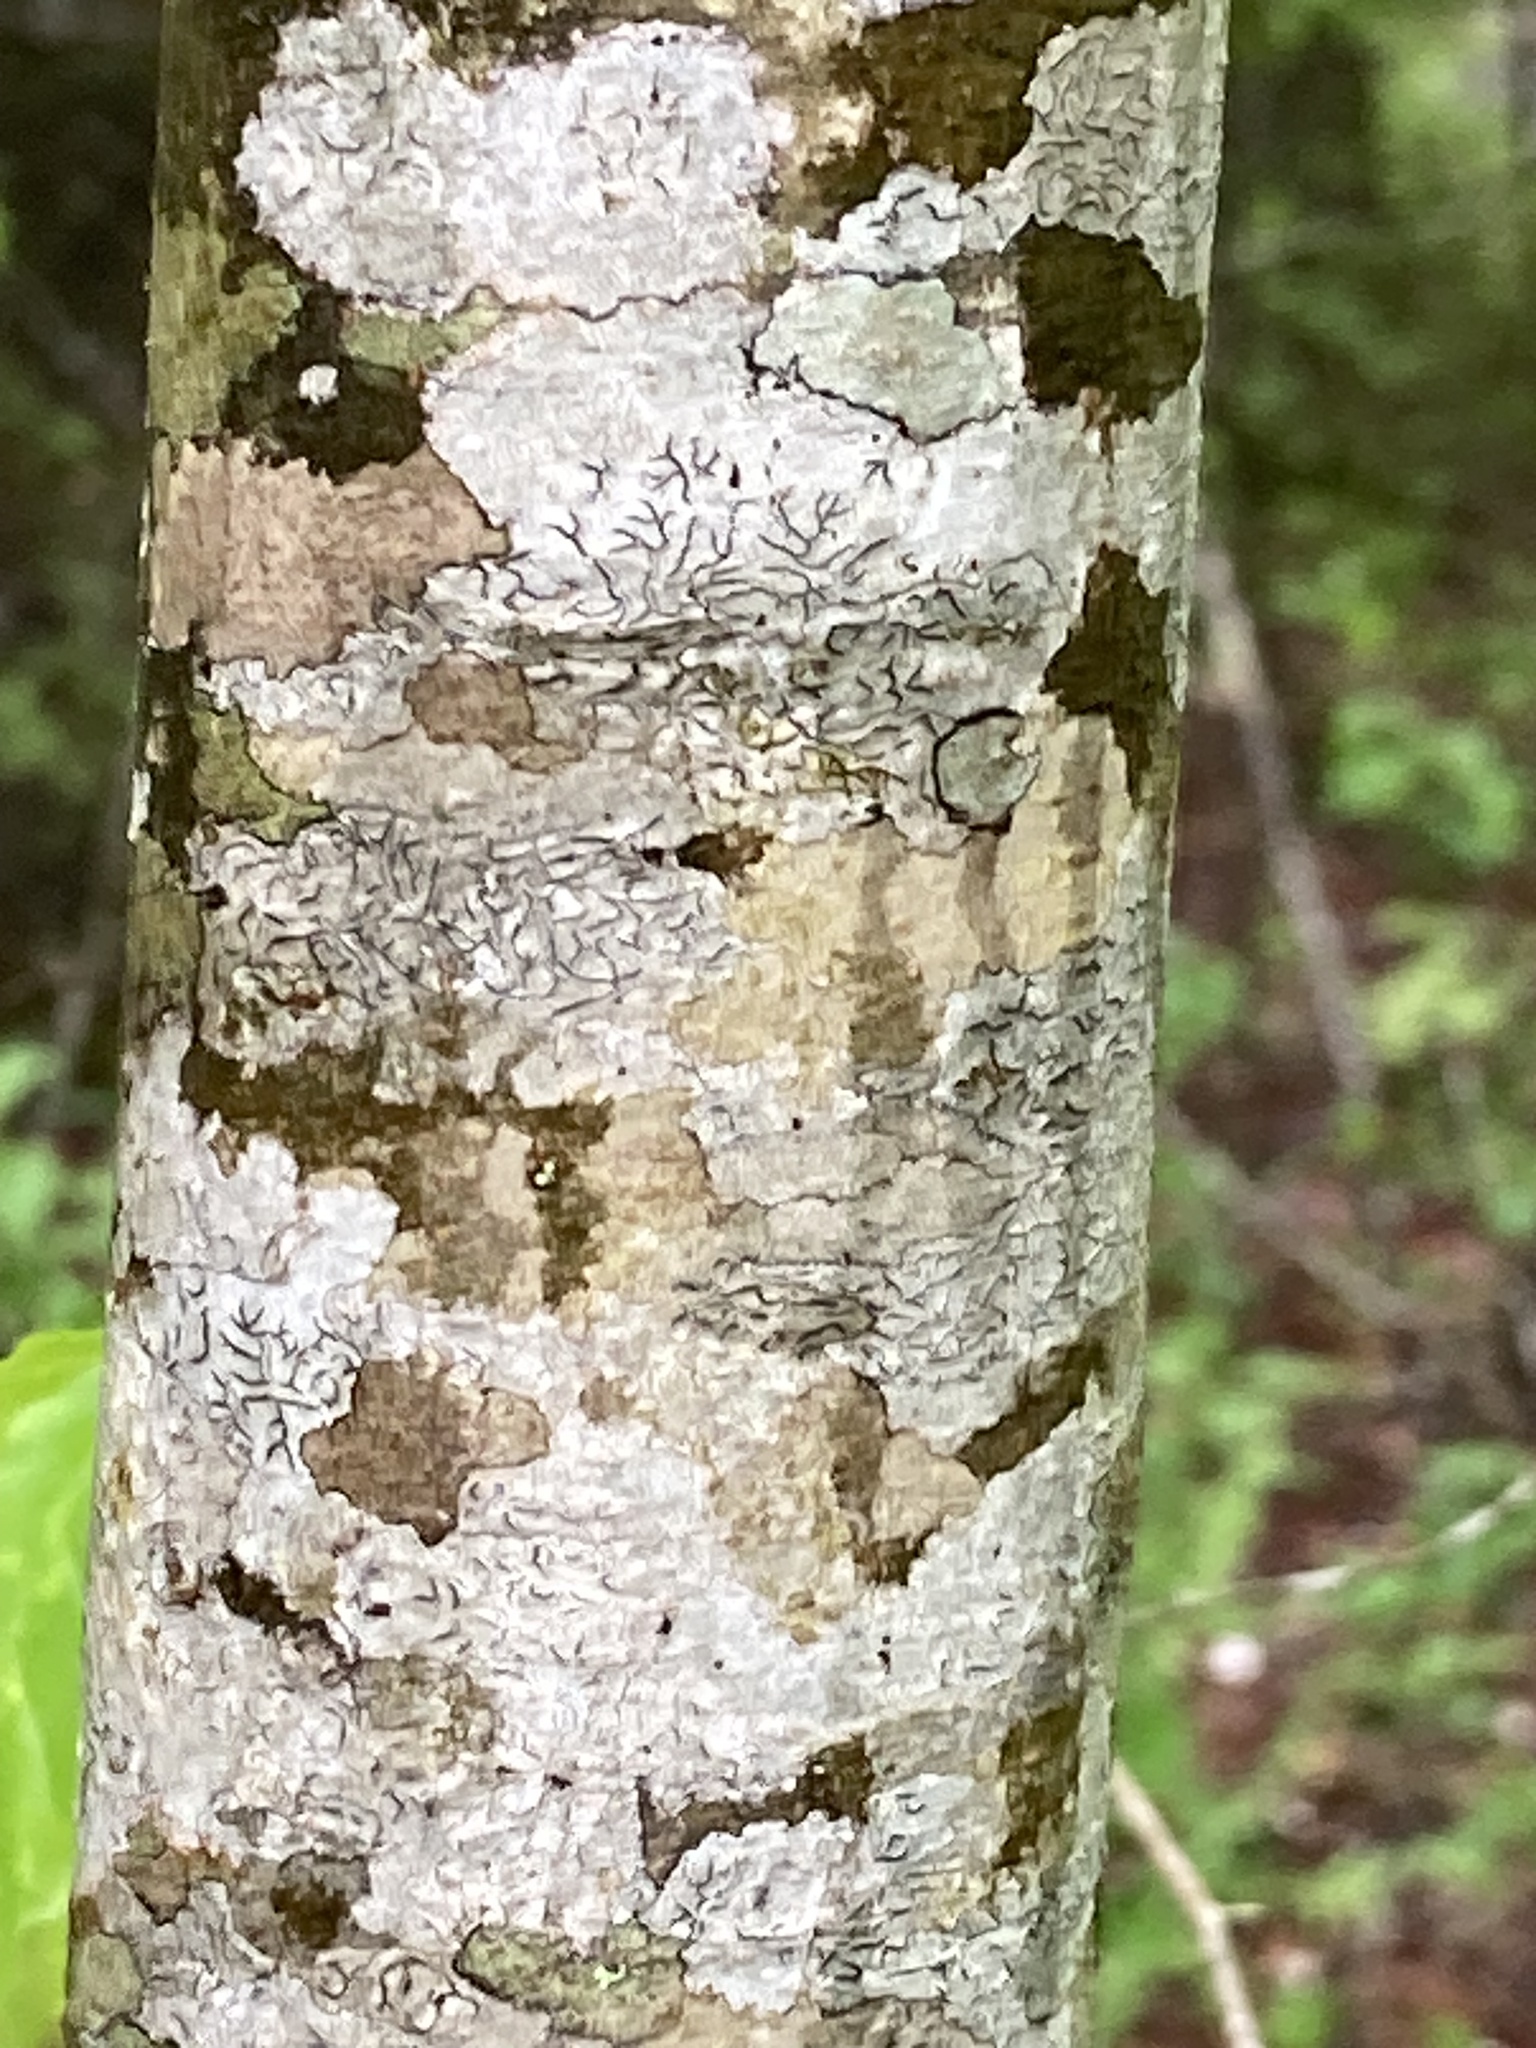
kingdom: Fungi
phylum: Ascomycota
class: Lecanoromycetes
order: Ostropales
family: Graphidaceae
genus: Graphis
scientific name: Graphis scripta
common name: Script lichen
